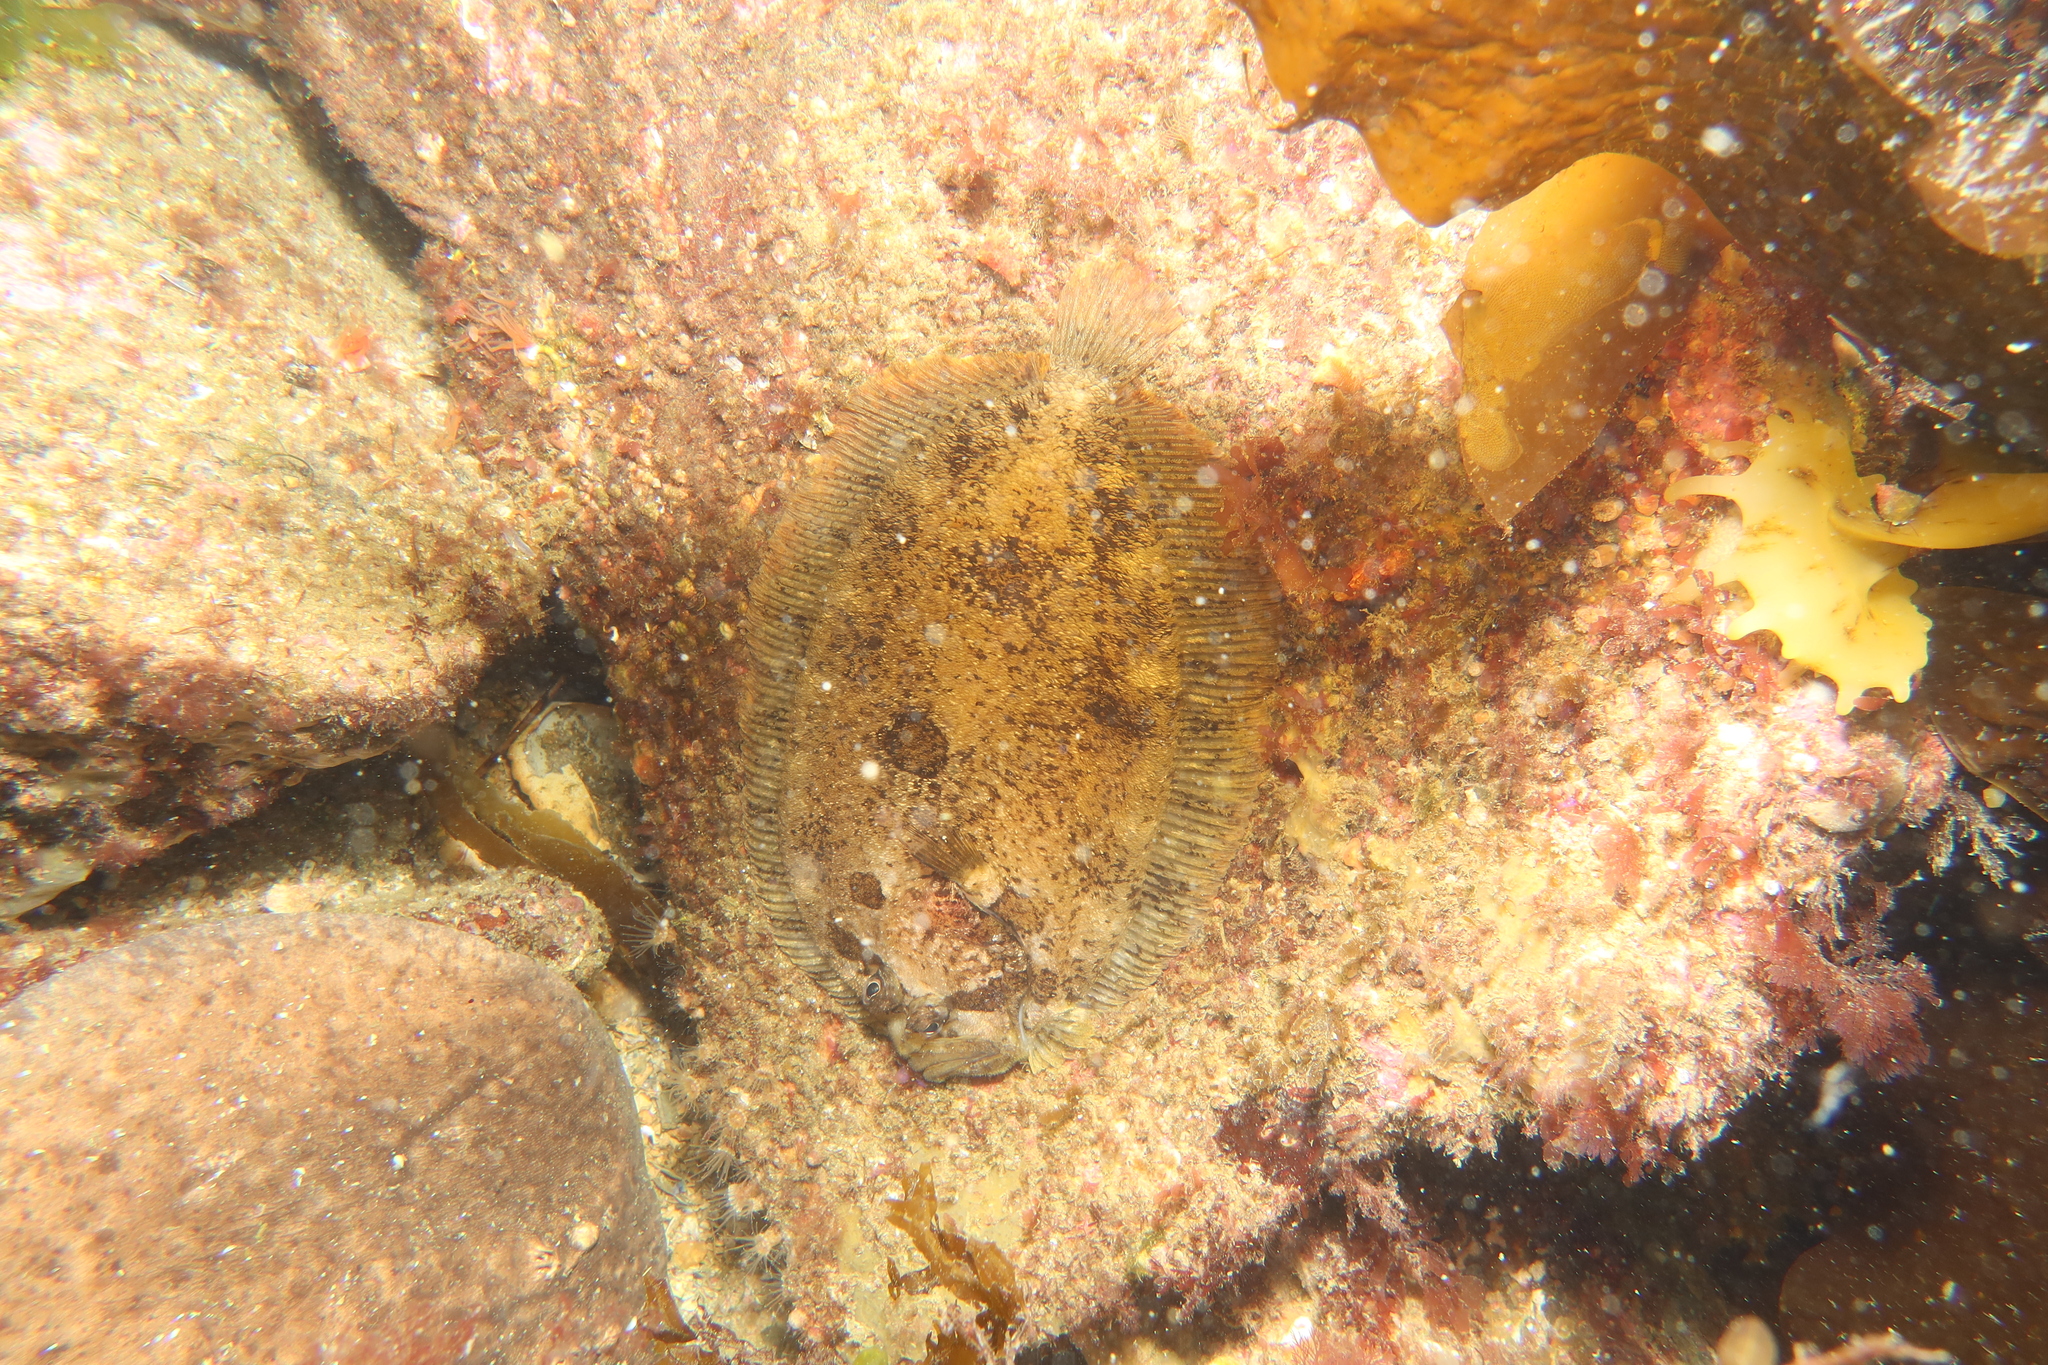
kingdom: Animalia
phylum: Chordata
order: Pleuronectiformes
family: Scophthalmidae
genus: Zeugopterus
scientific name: Zeugopterus punctatus
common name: Topknot
